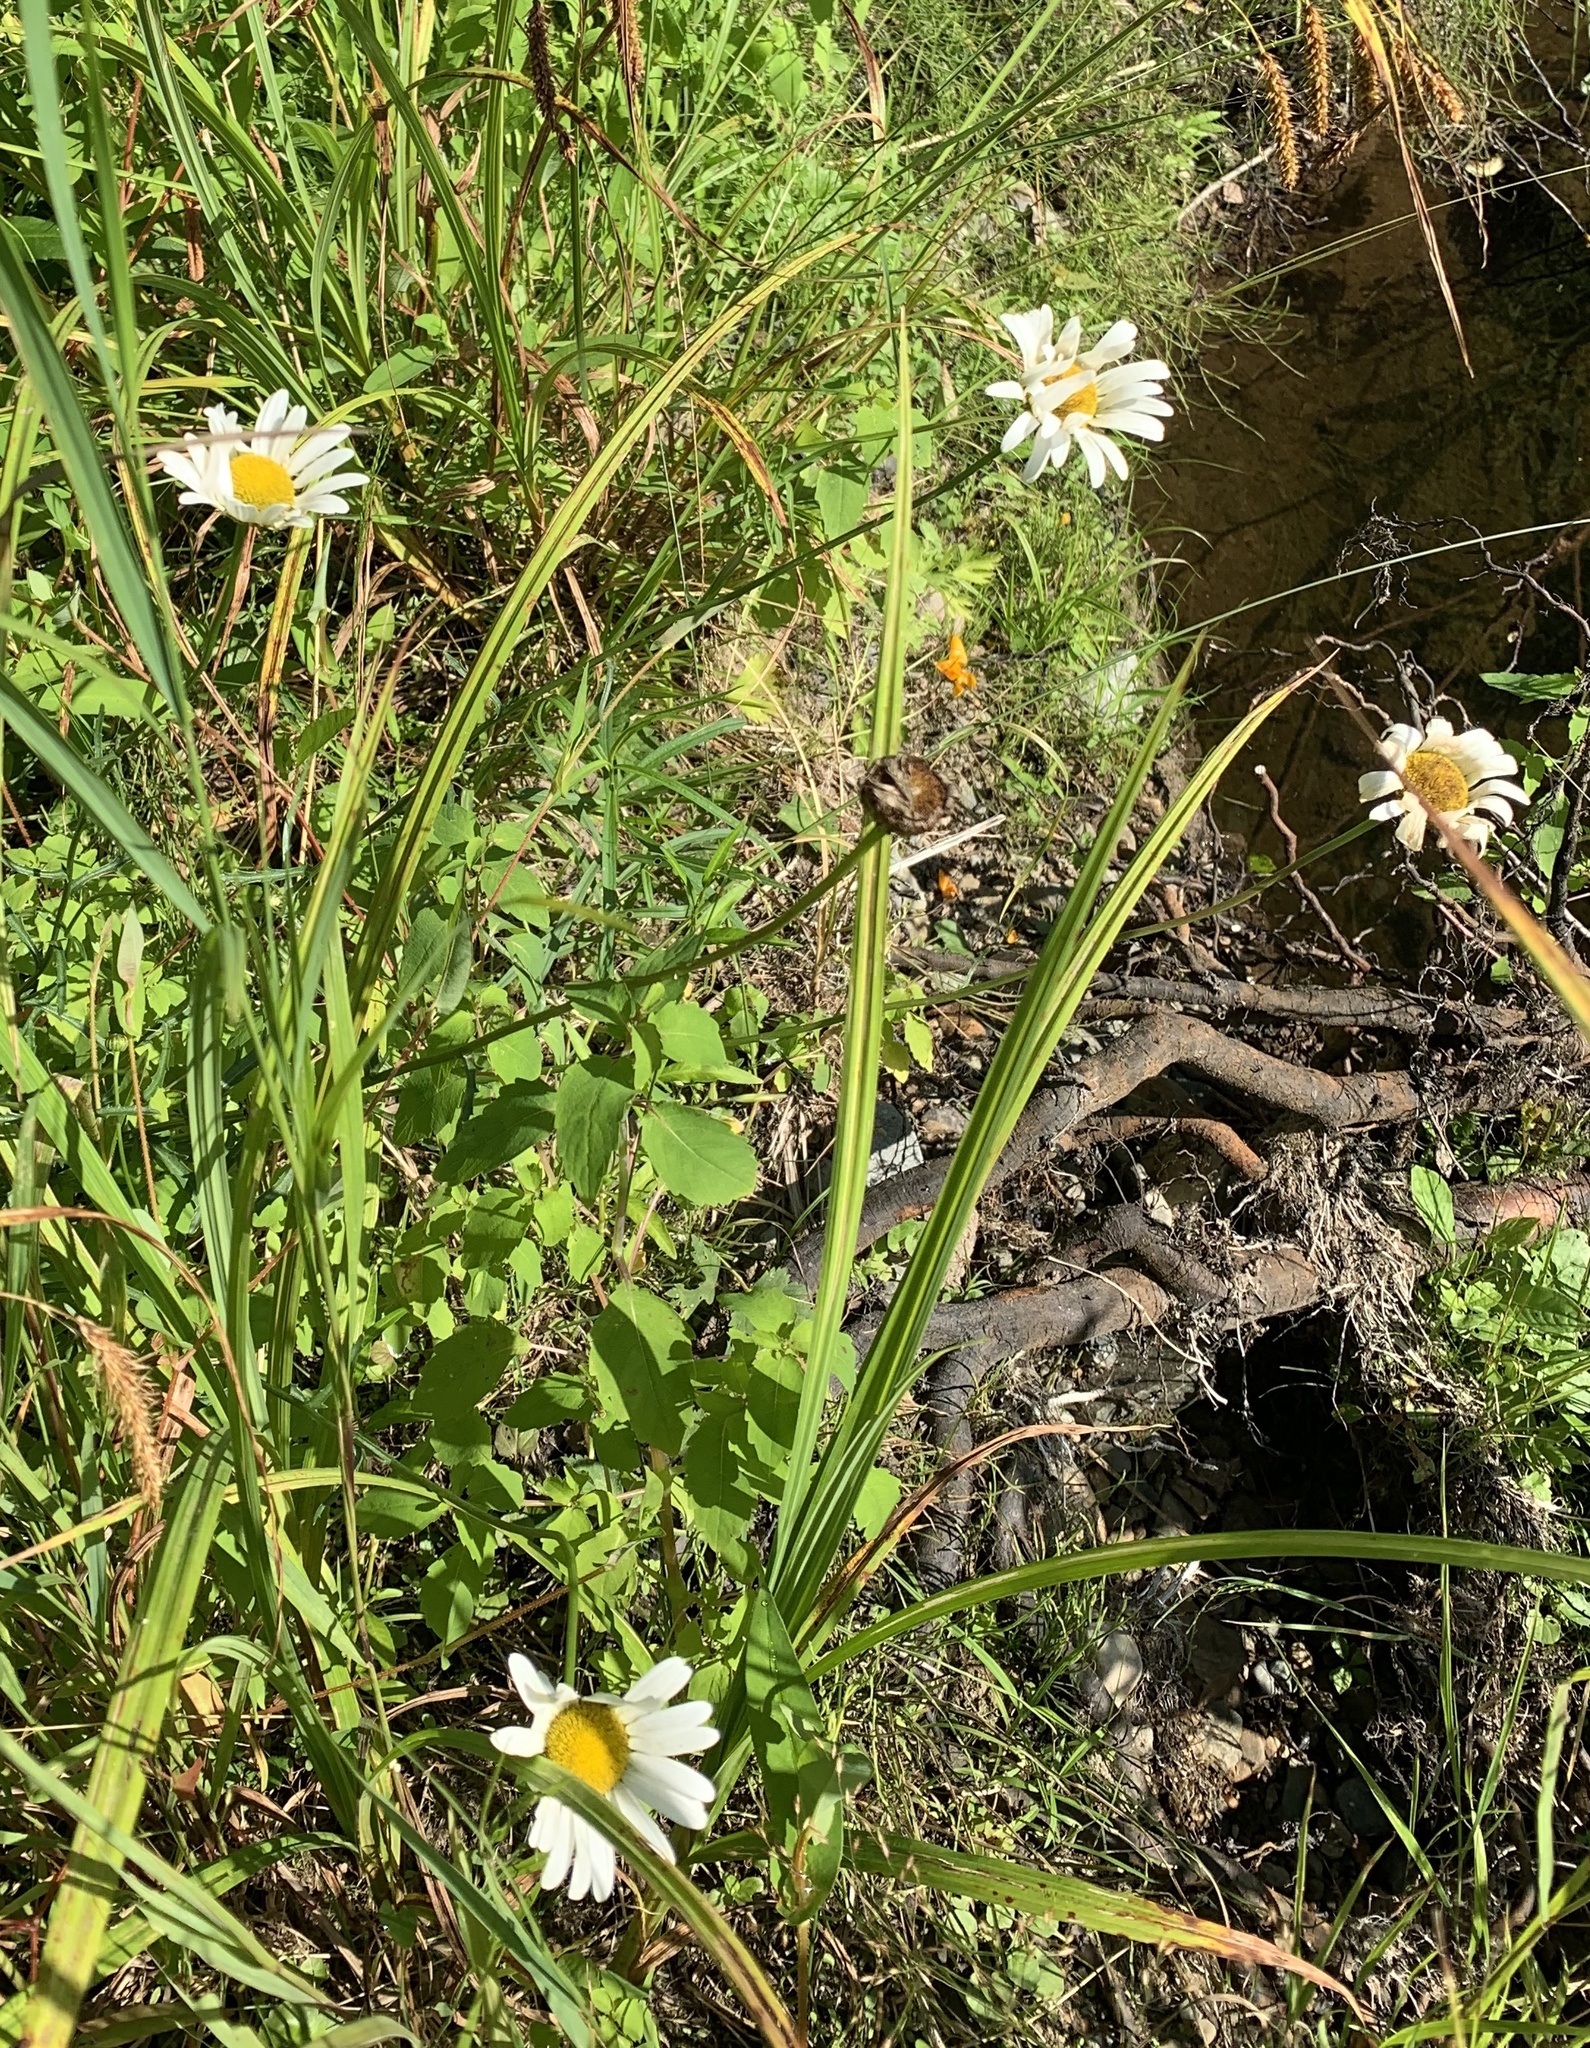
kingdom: Plantae
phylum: Tracheophyta
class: Magnoliopsida
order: Asterales
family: Asteraceae
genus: Leucanthemum
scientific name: Leucanthemum vulgare
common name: Oxeye daisy
